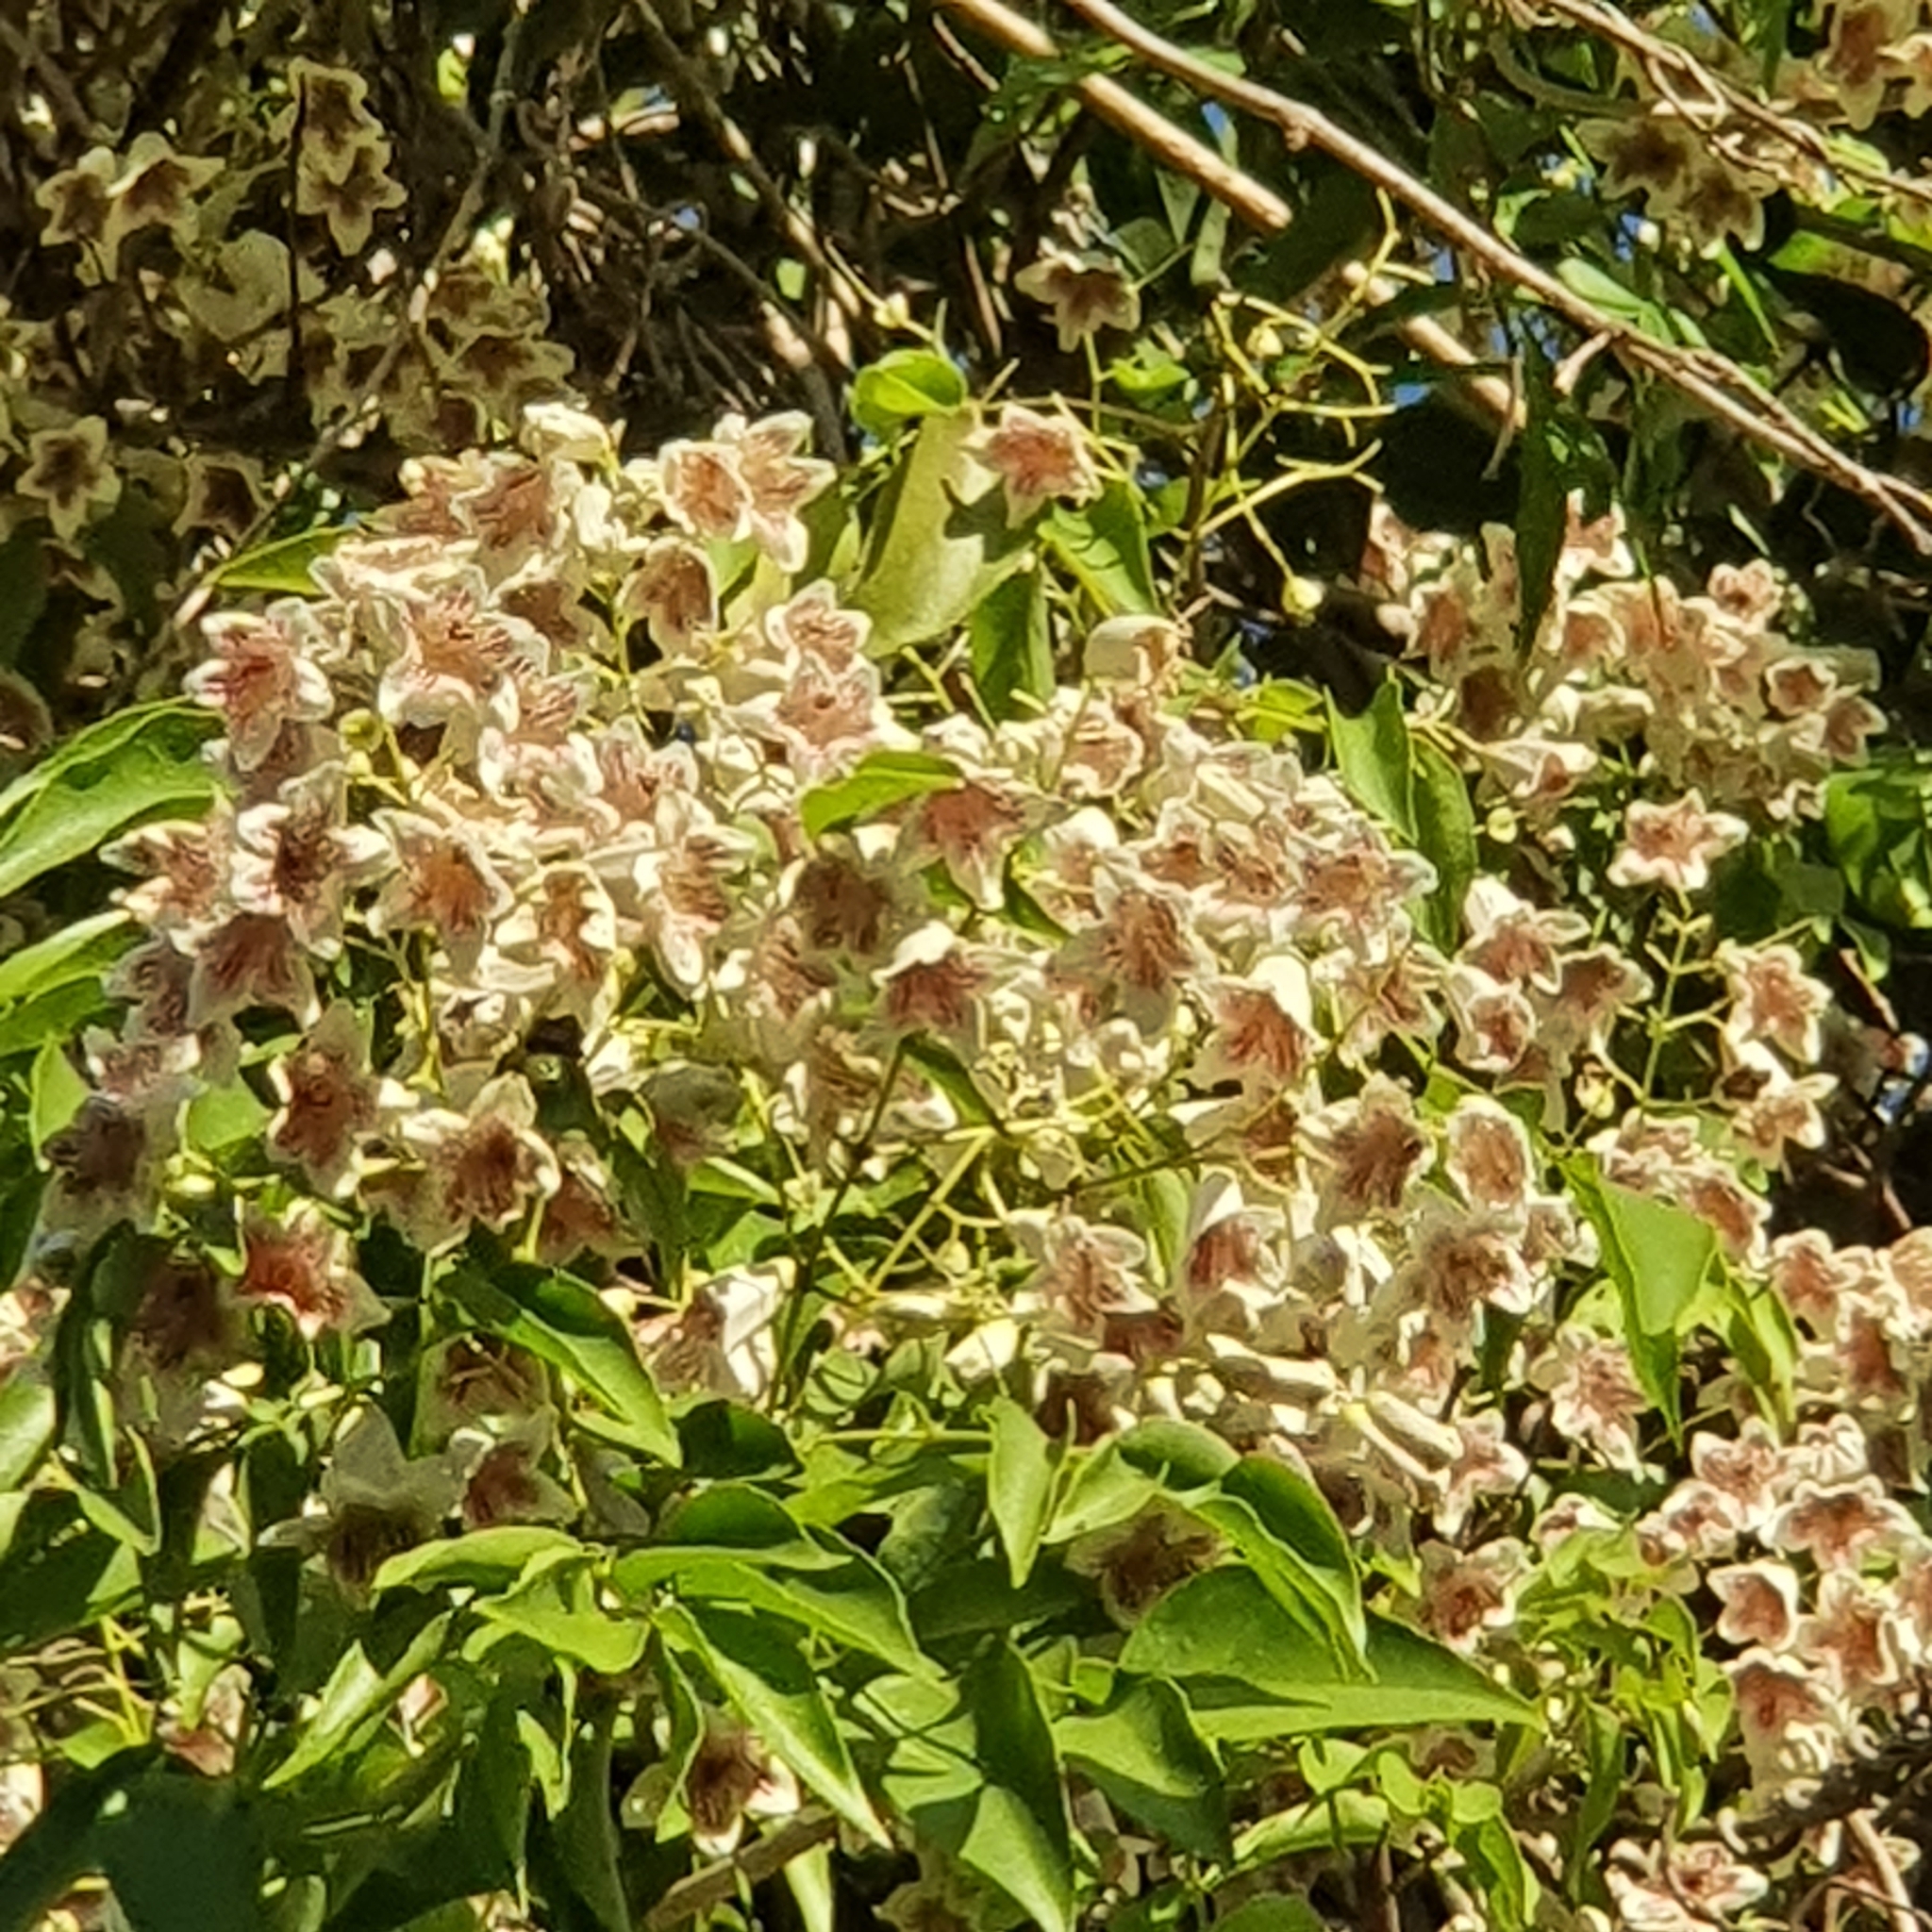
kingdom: Plantae
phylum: Tracheophyta
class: Magnoliopsida
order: Lamiales
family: Bignoniaceae
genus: Pandorea
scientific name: Pandorea pandorana
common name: Wonga-wonga-vine
